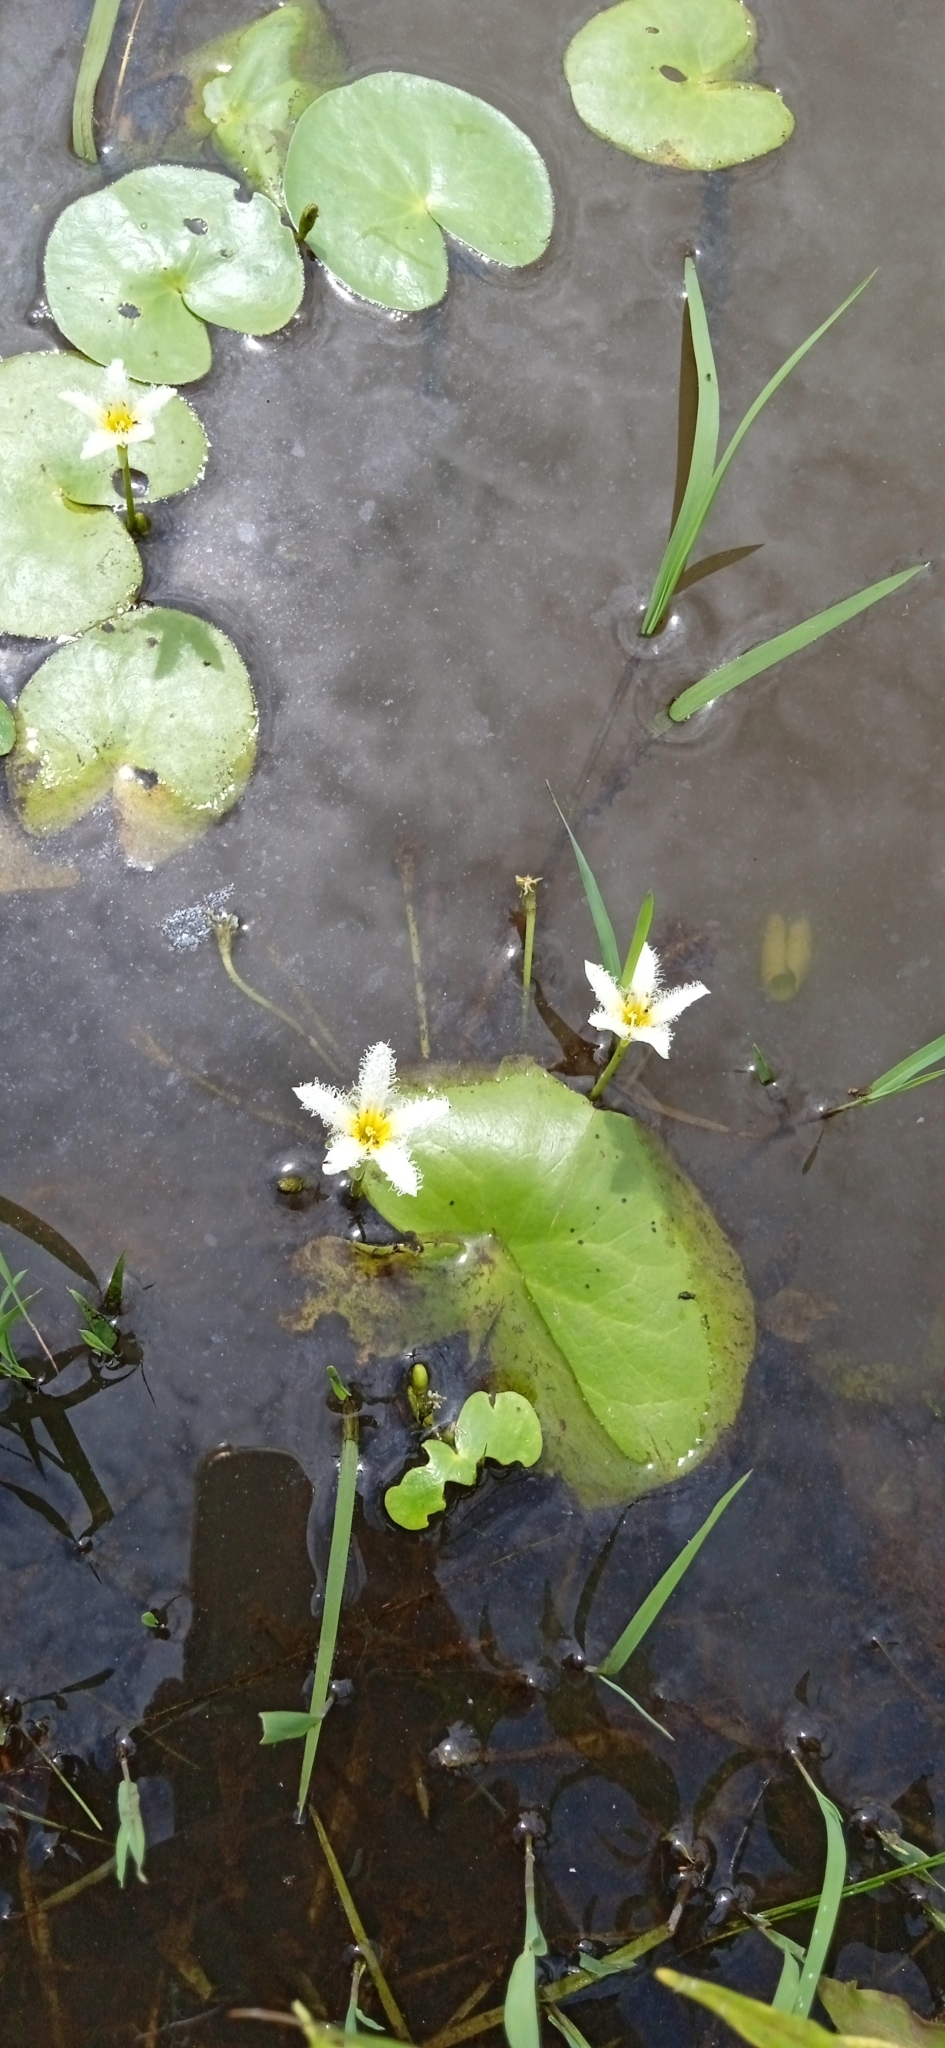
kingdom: Plantae
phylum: Tracheophyta
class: Magnoliopsida
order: Asterales
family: Menyanthaceae
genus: Nymphoides
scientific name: Nymphoides humboldtiana
